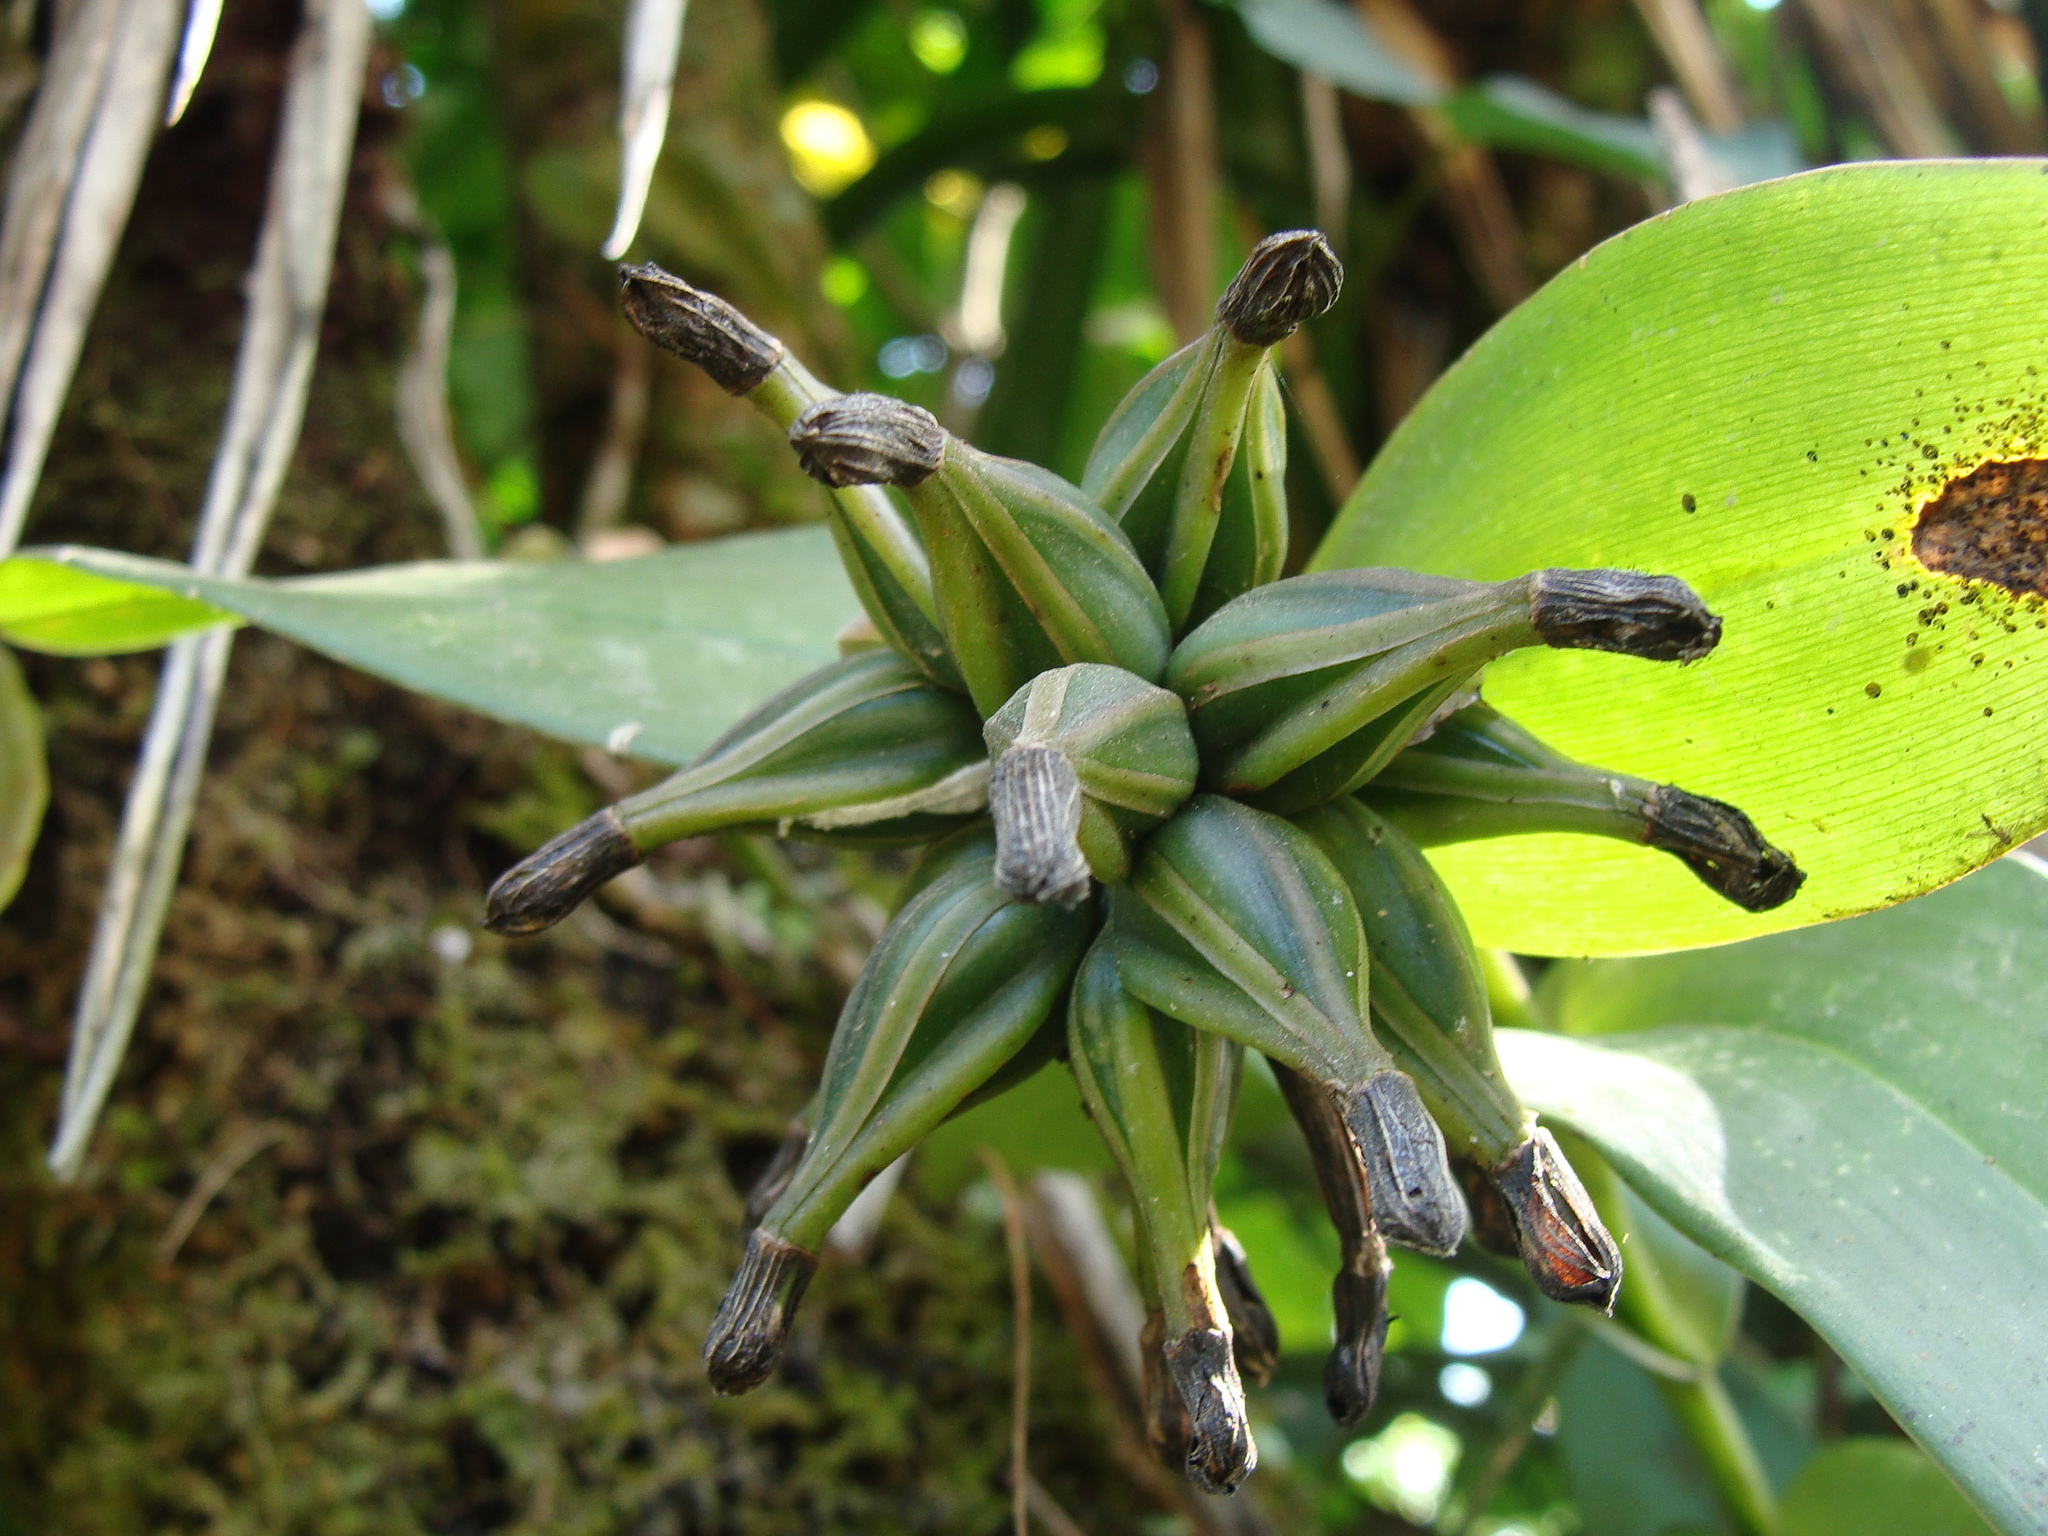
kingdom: Plantae
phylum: Tracheophyta
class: Liliopsida
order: Asparagales
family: Orchidaceae
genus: Epidendrum
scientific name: Epidendrum trianthum
